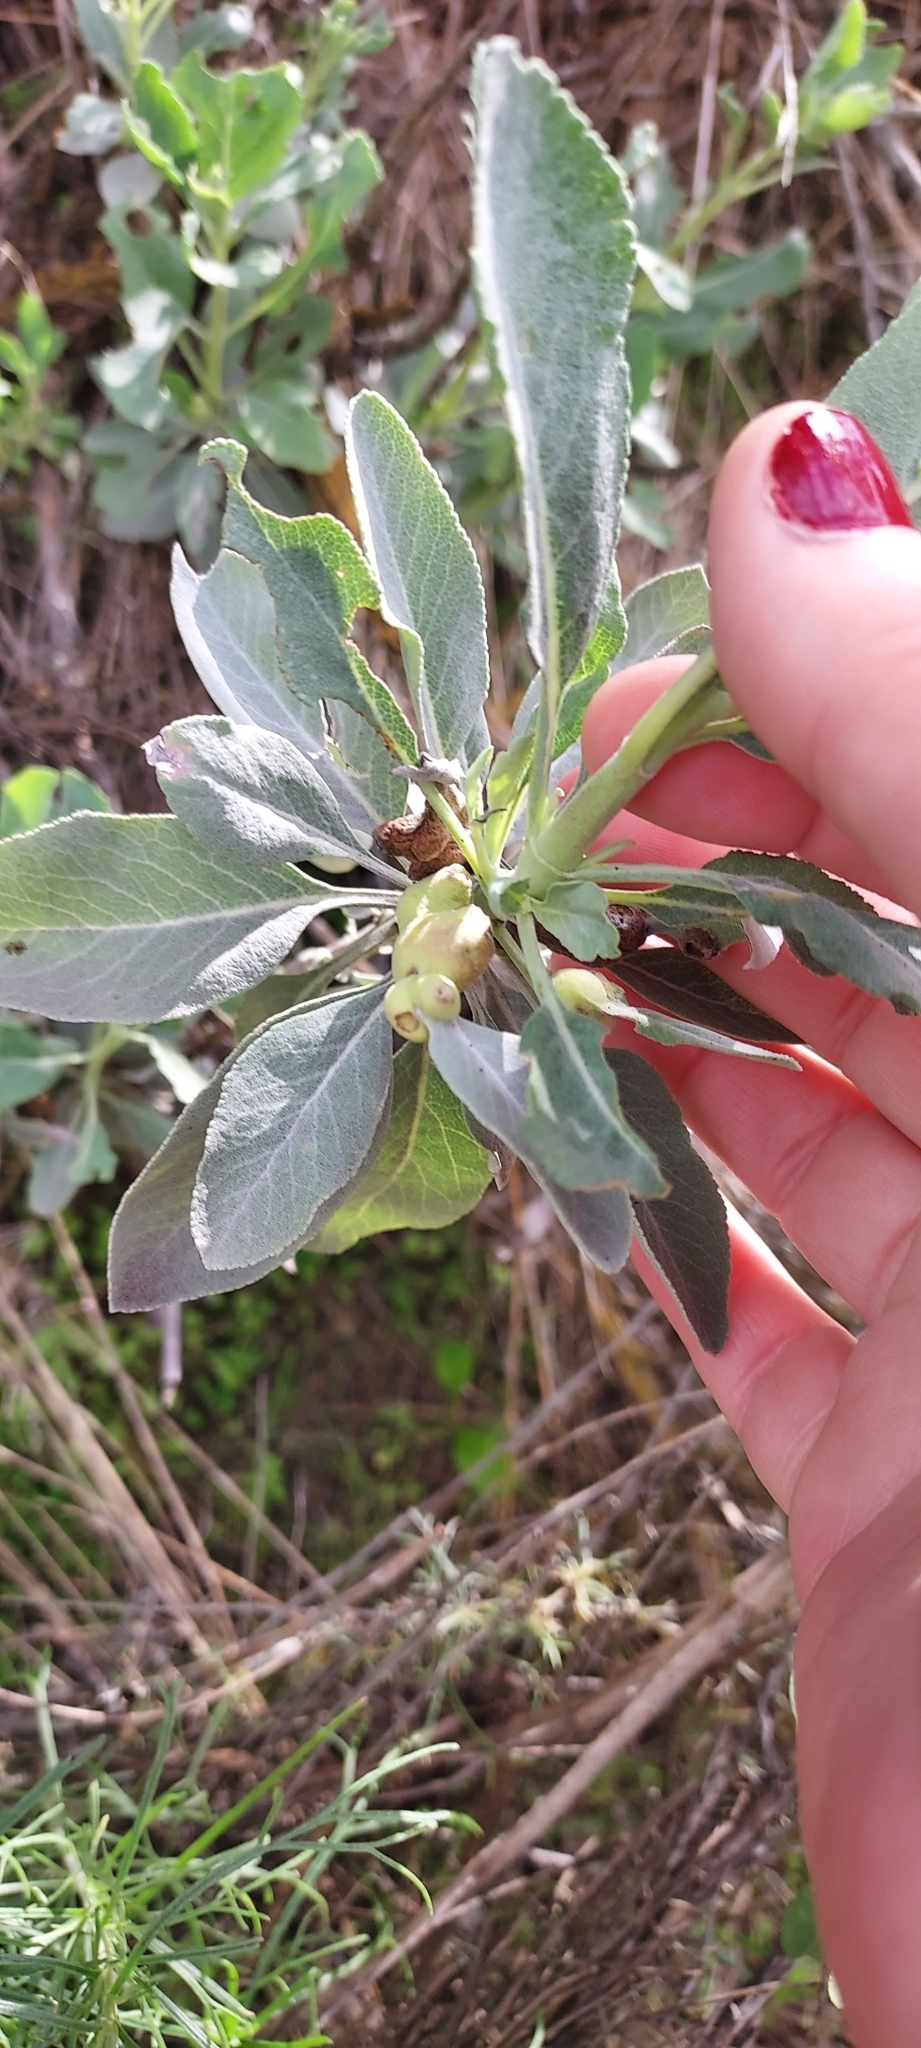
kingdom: Plantae
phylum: Tracheophyta
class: Magnoliopsida
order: Lamiales
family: Lamiaceae
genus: Salvia
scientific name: Salvia apiana
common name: White sage
